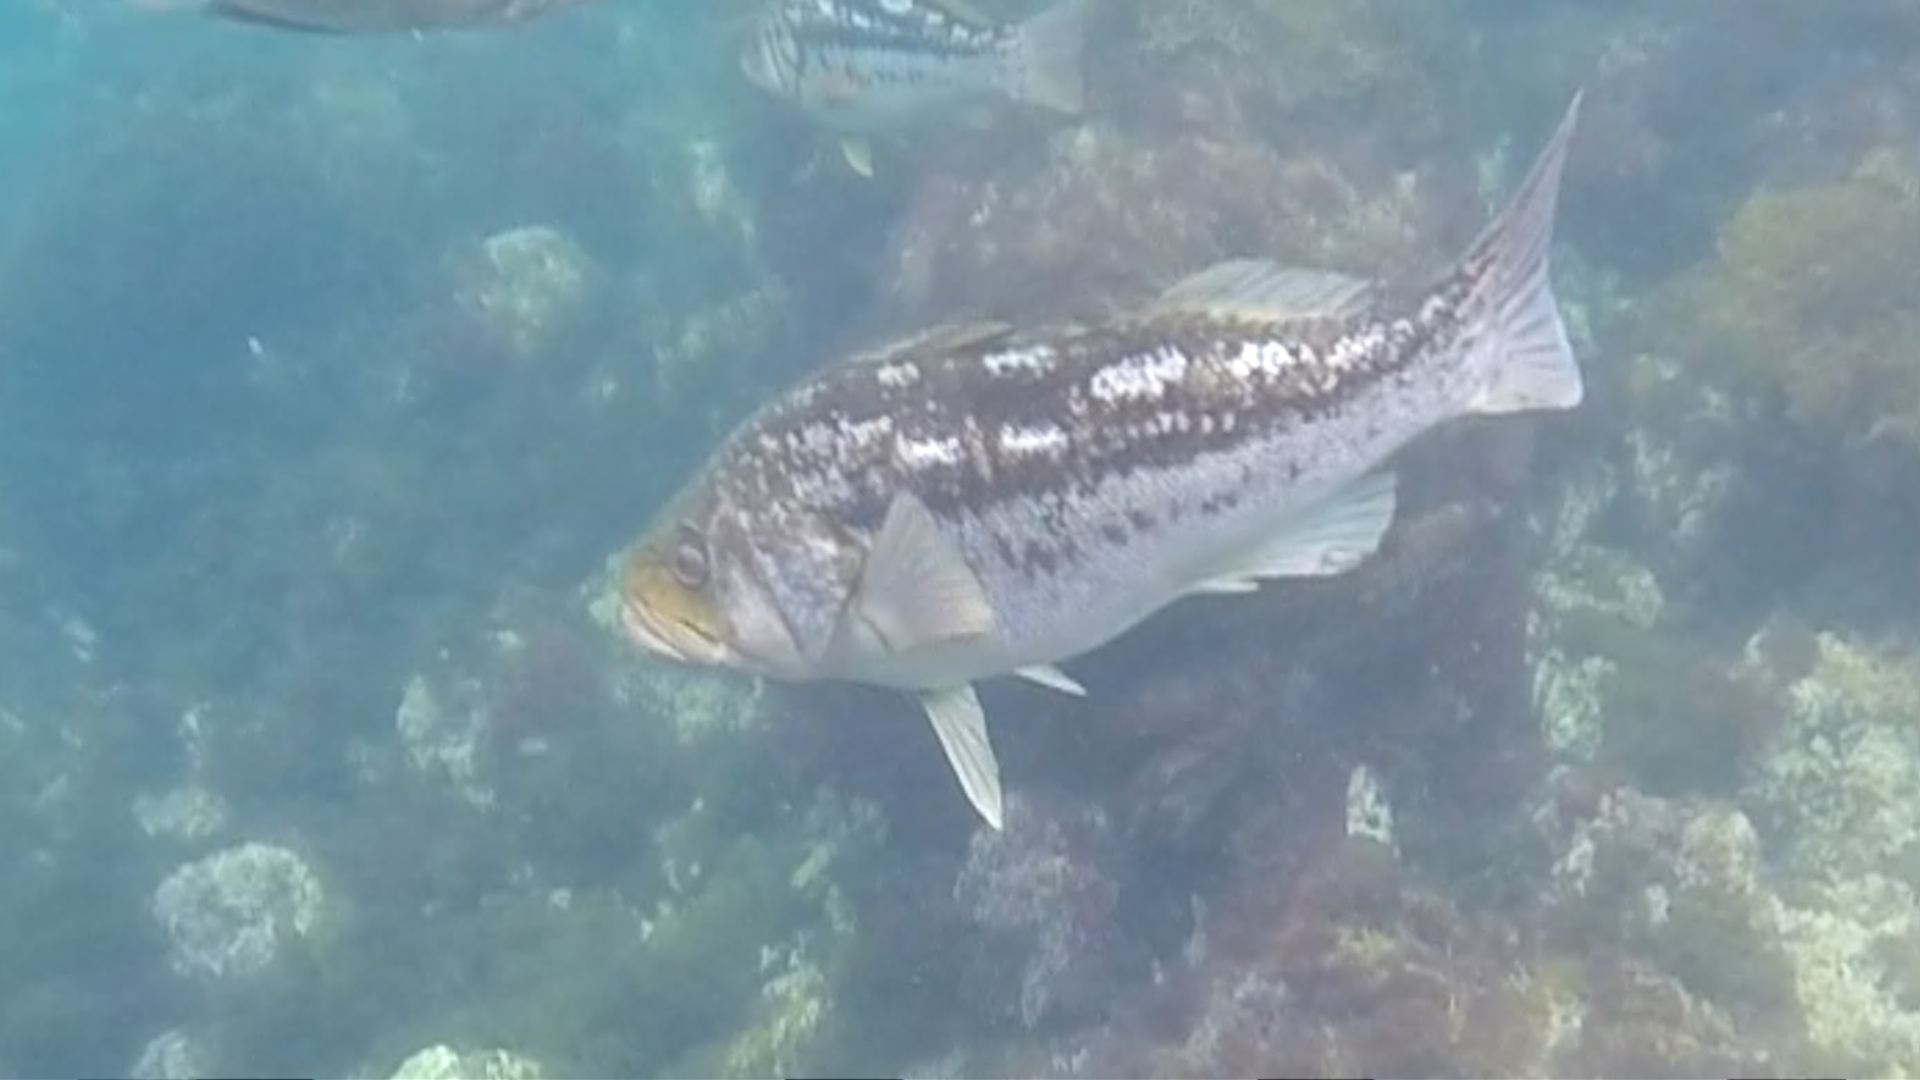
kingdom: Animalia
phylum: Chordata
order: Perciformes
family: Serranidae
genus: Paralabrax
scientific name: Paralabrax clathratus
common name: Kelp bass
